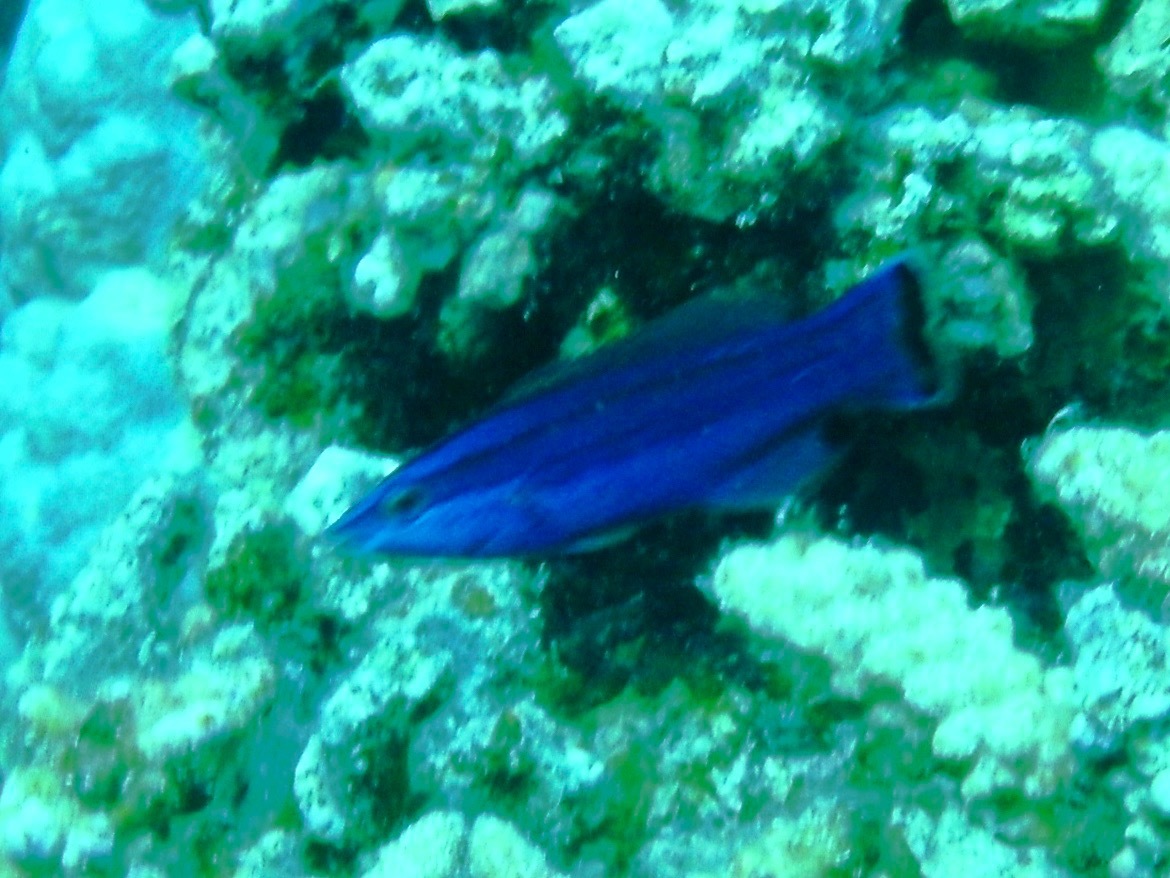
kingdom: Animalia
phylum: Chordata
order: Perciformes
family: Labridae
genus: Larabicus
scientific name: Larabicus quadrilineatus
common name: Fourline wrasse
